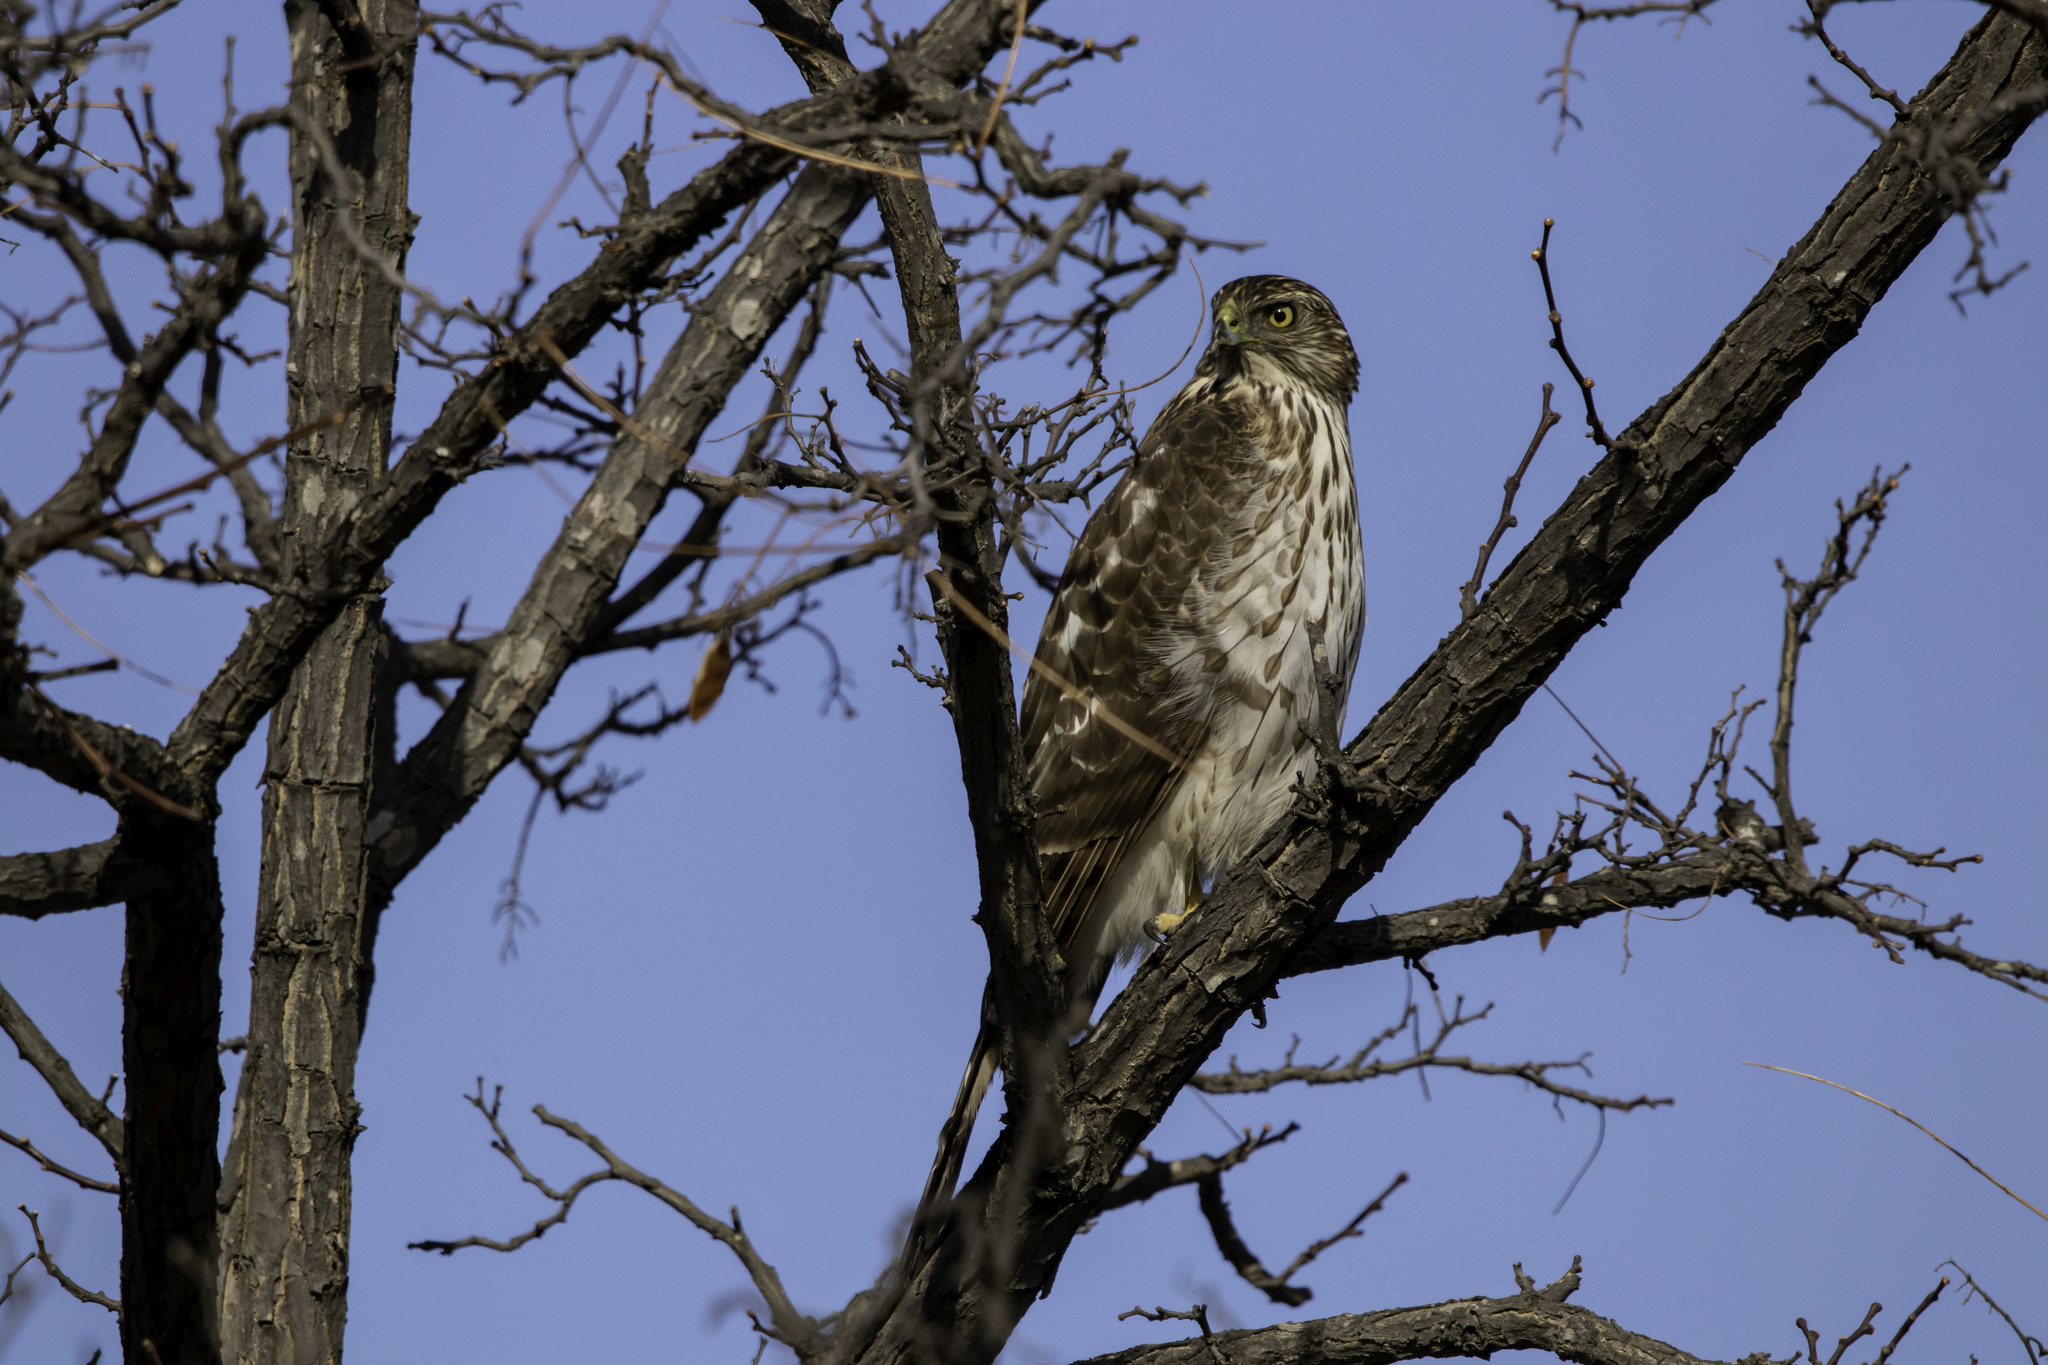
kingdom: Animalia
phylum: Chordata
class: Aves
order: Accipitriformes
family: Accipitridae
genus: Accipiter
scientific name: Accipiter cooperii
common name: Cooper's hawk
